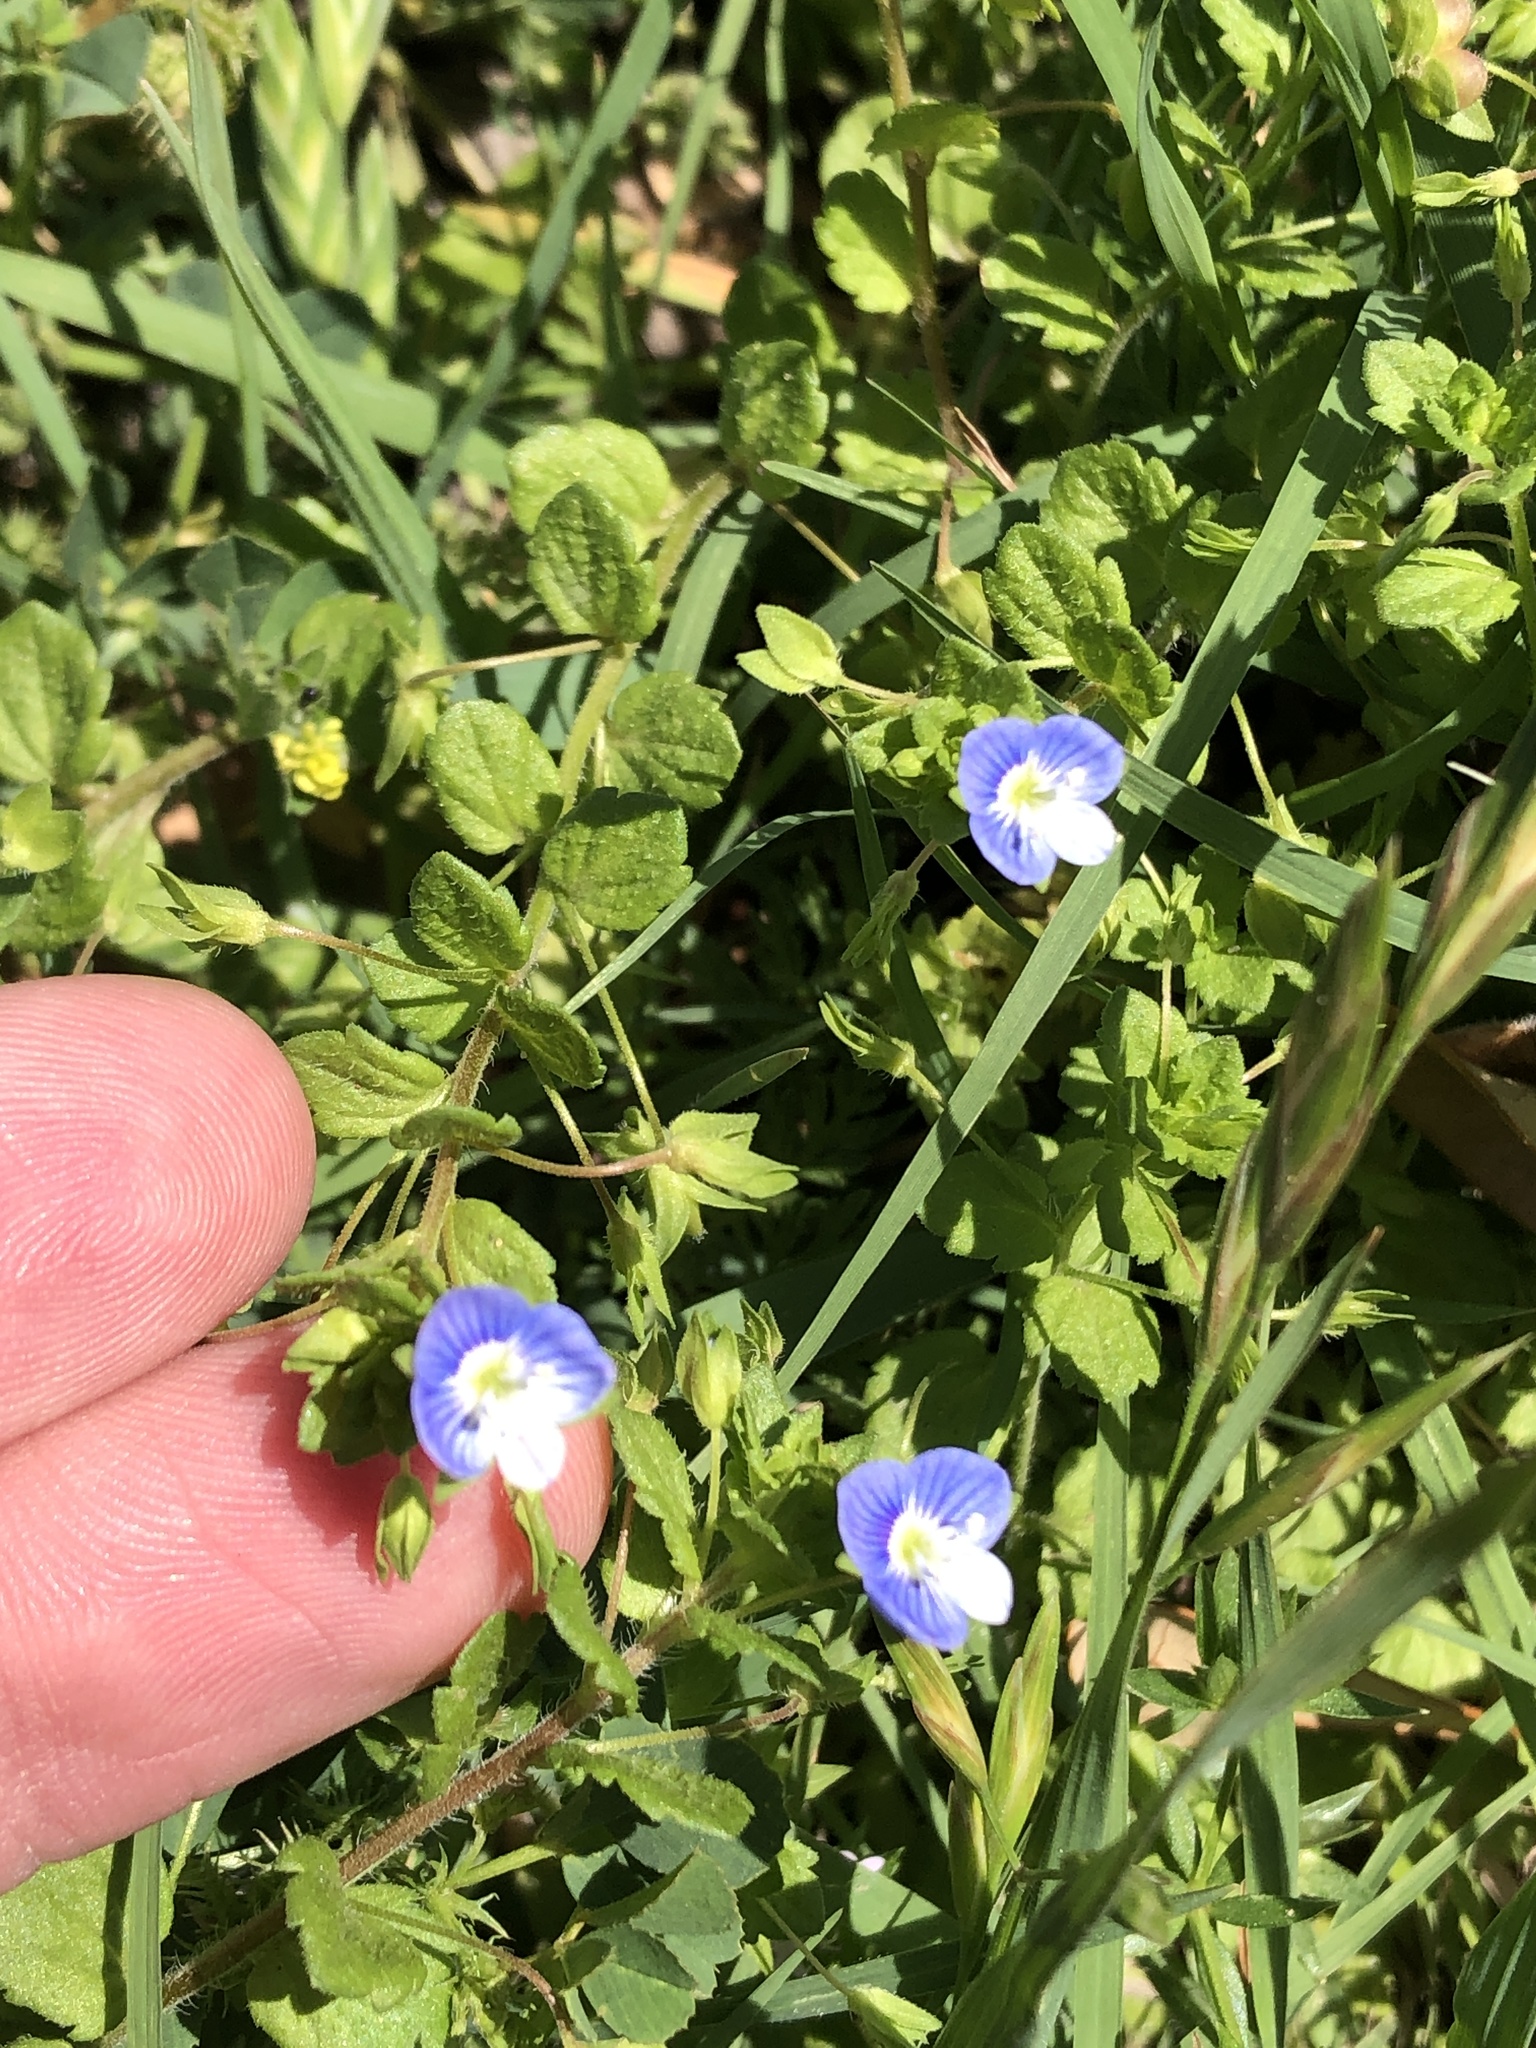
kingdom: Plantae
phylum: Tracheophyta
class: Magnoliopsida
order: Lamiales
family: Plantaginaceae
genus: Veronica
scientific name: Veronica persica
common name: Common field-speedwell
